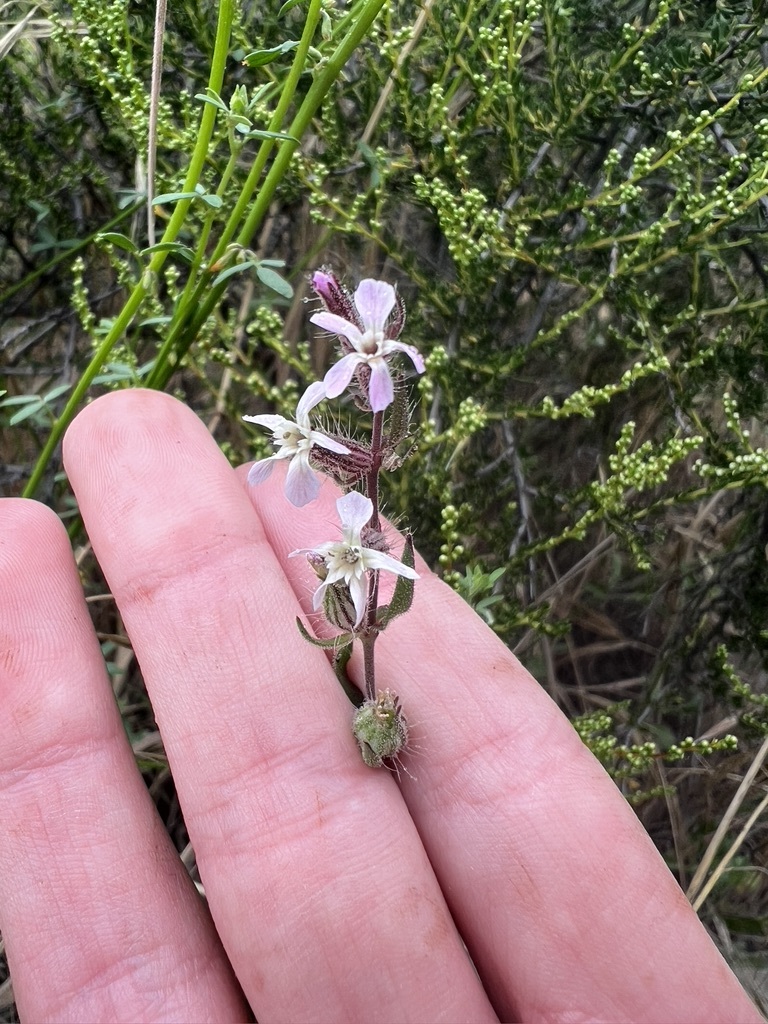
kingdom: Plantae
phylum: Tracheophyta
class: Magnoliopsida
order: Caryophyllales
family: Caryophyllaceae
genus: Silene
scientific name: Silene gallica
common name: Small-flowered catchfly
